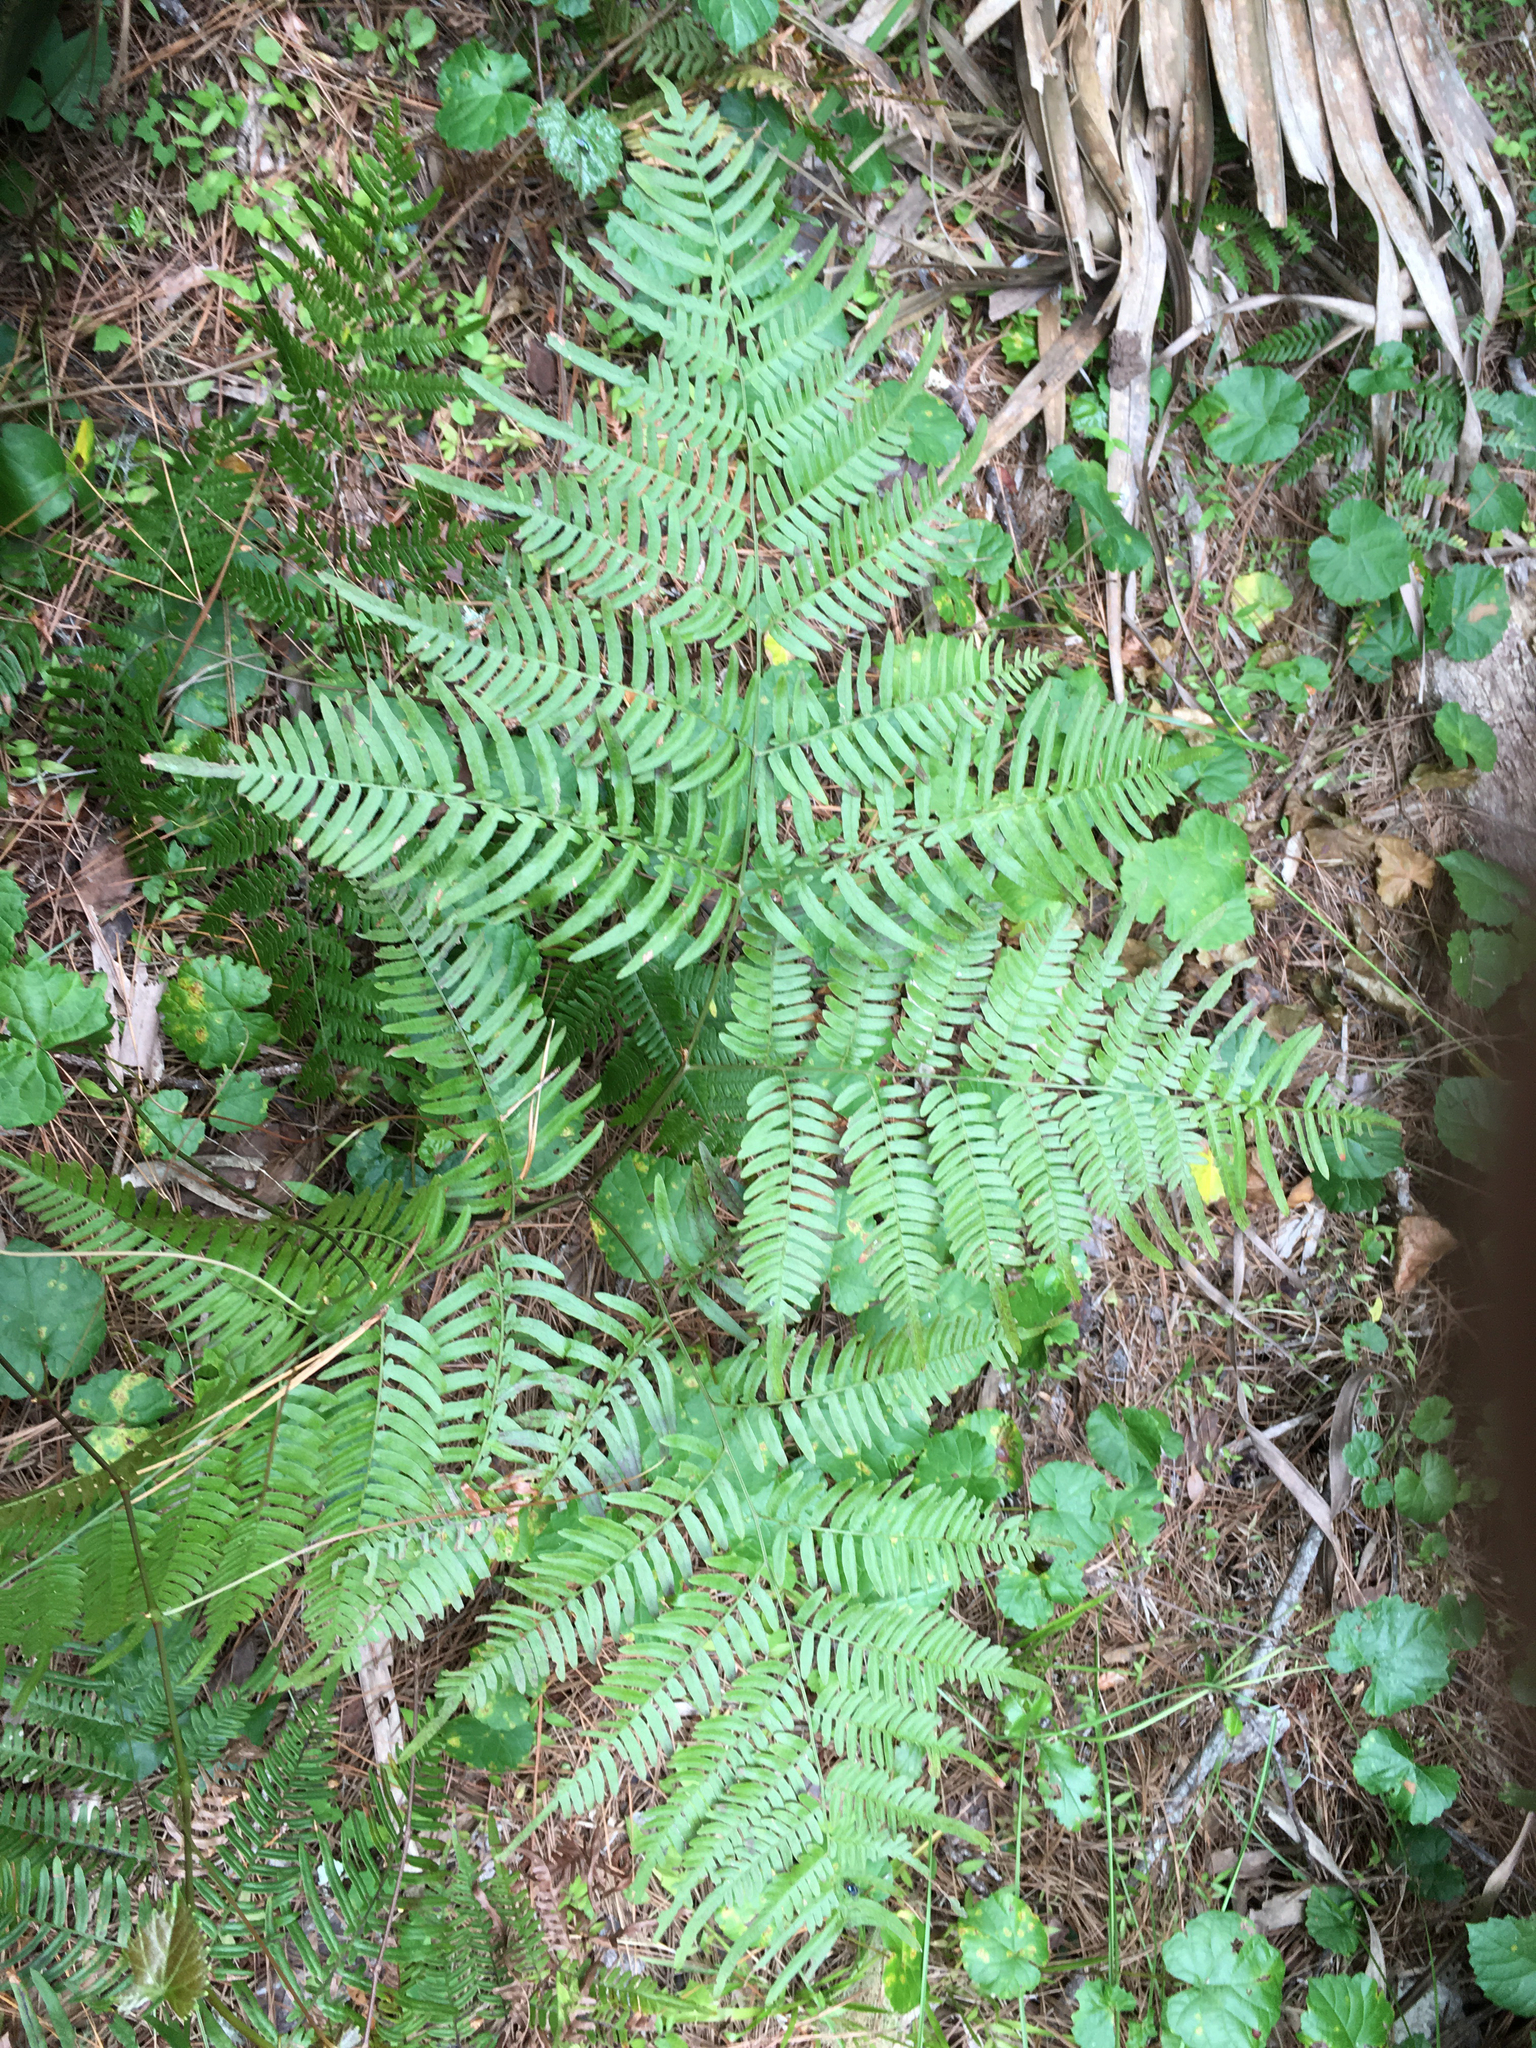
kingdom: Plantae
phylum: Tracheophyta
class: Polypodiopsida
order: Polypodiales
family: Dennstaedtiaceae
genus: Pteridium
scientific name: Pteridium
